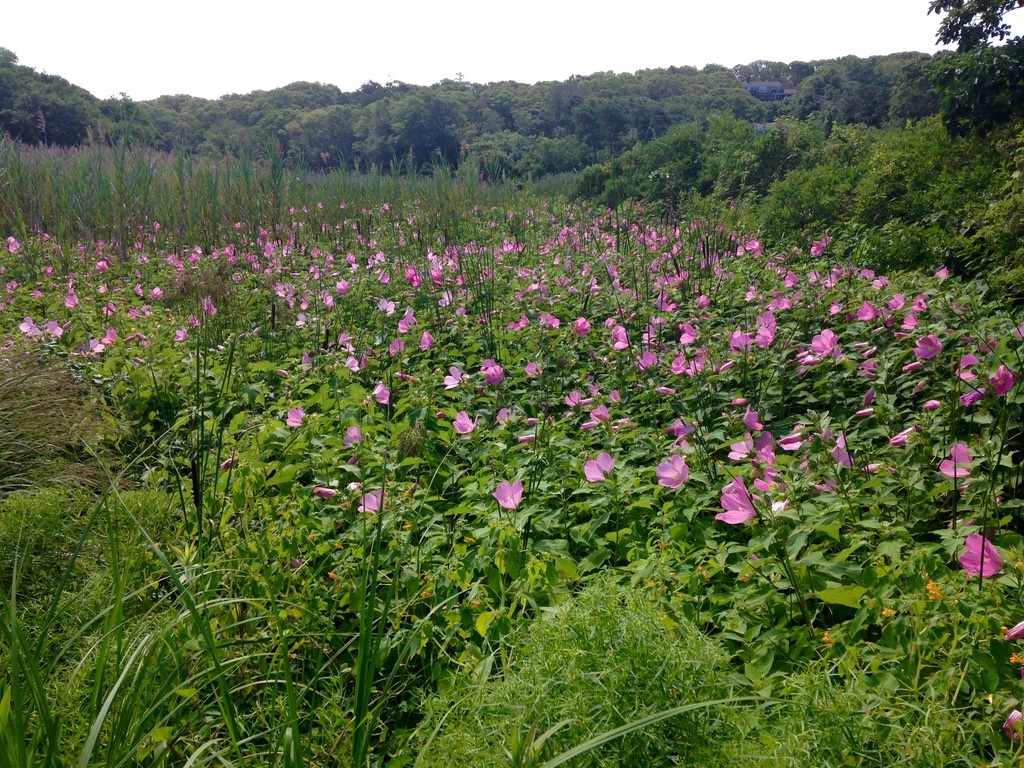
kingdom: Plantae
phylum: Tracheophyta
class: Magnoliopsida
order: Malvales
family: Malvaceae
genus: Hibiscus
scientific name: Hibiscus moscheutos
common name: Common rose-mallow
